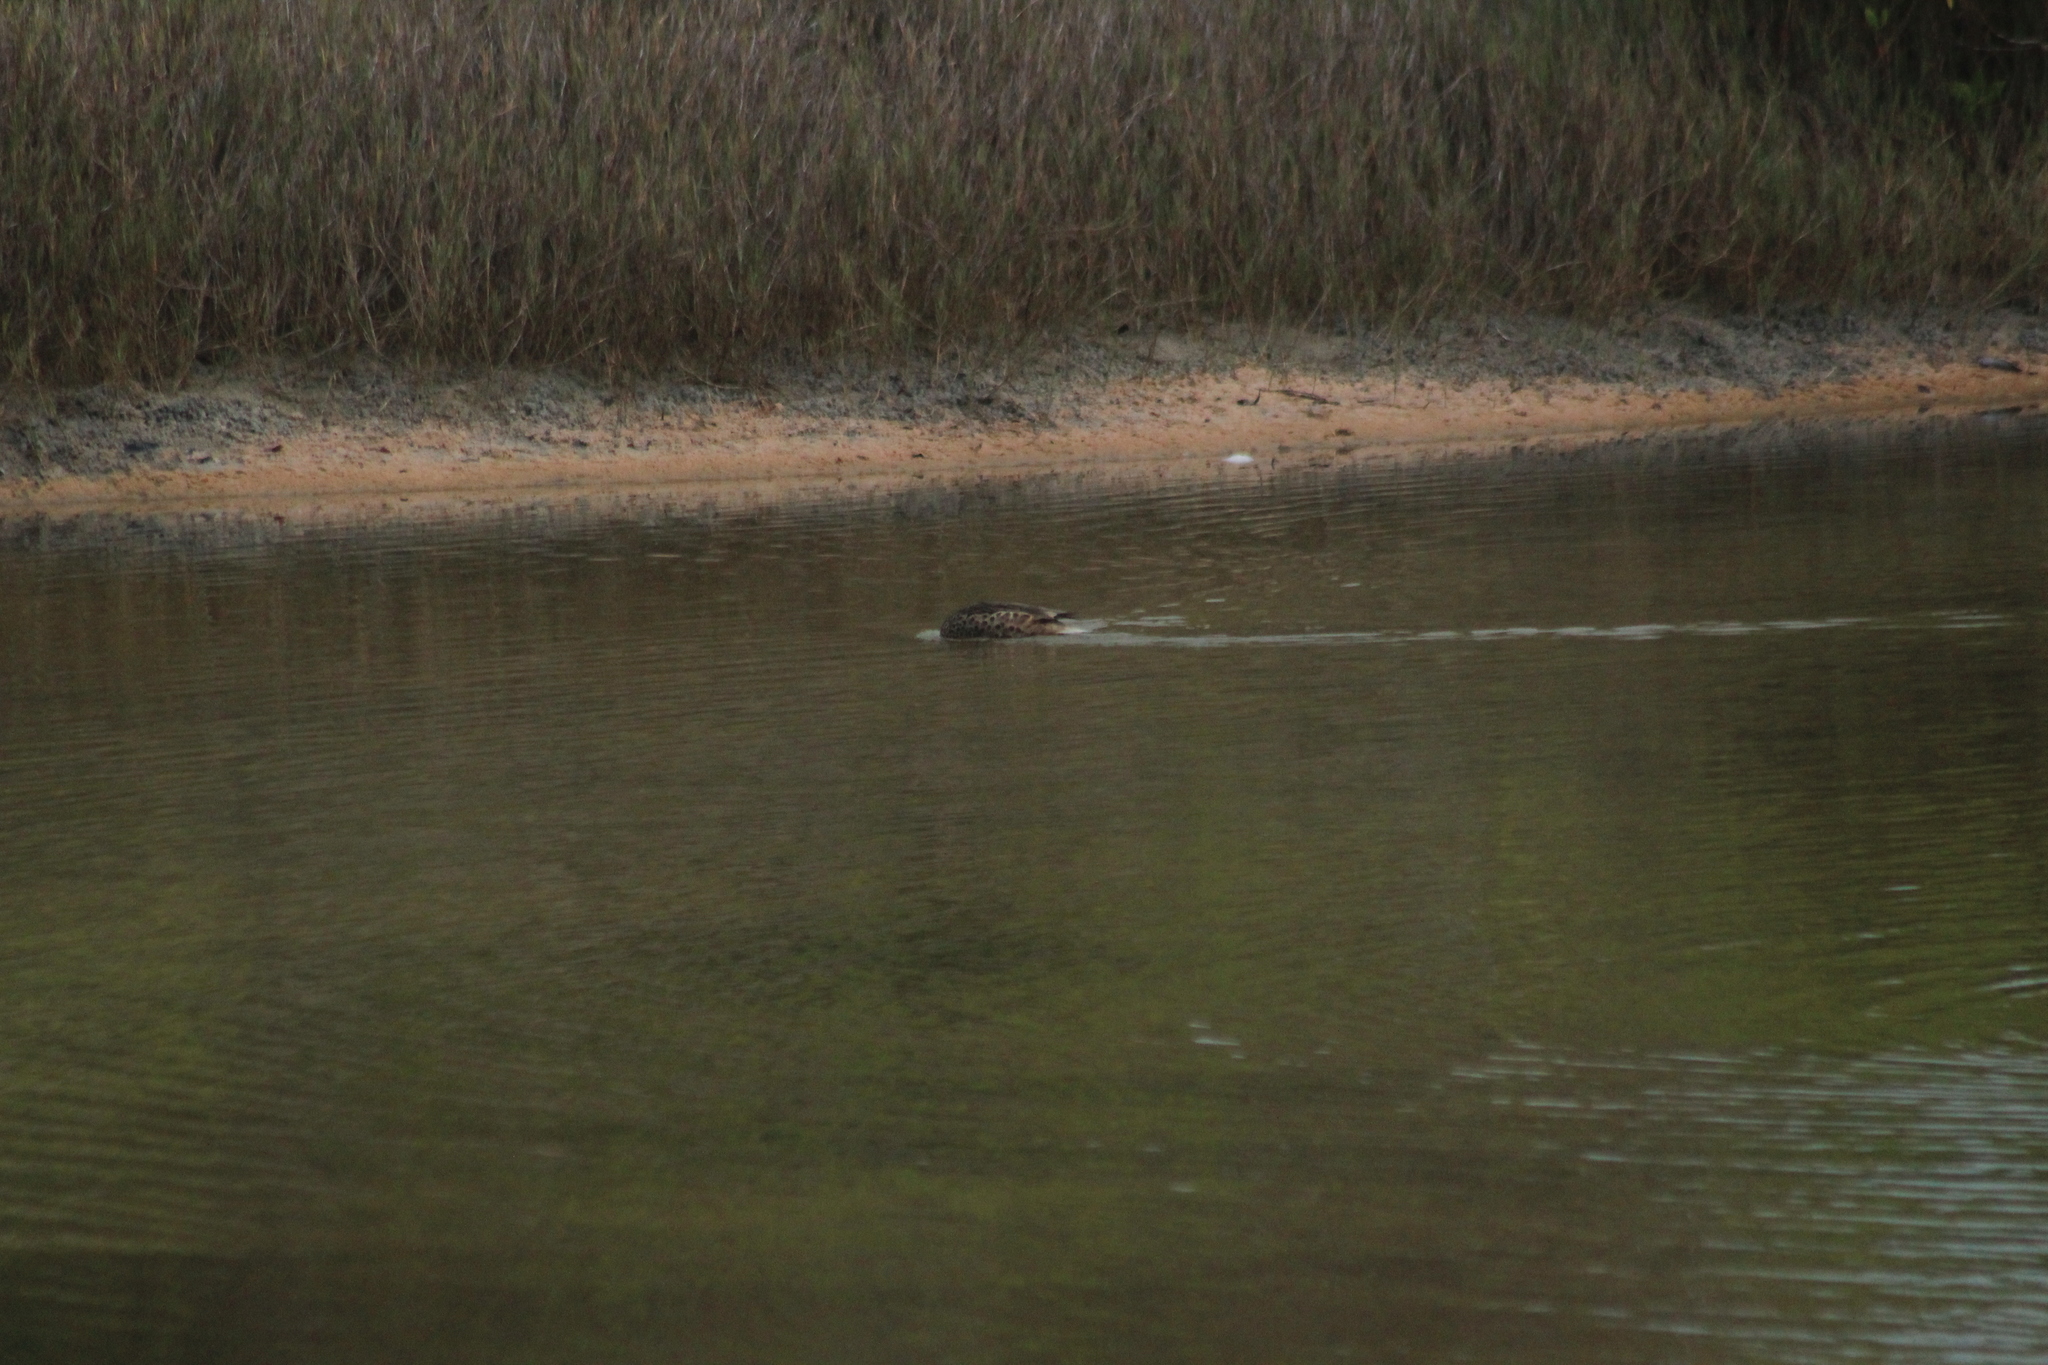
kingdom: Animalia
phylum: Chordata
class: Aves
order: Anseriformes
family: Anatidae
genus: Anas
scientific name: Anas bahamensis
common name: White-cheeked pintail
